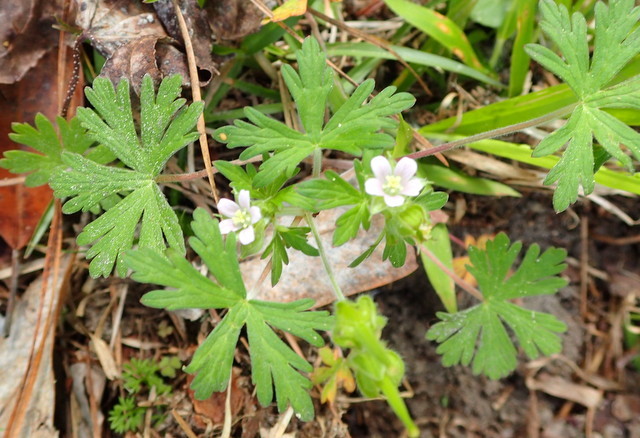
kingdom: Plantae
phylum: Tracheophyta
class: Magnoliopsida
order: Geraniales
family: Geraniaceae
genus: Geranium
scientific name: Geranium carolinianum
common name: Carolina crane's-bill
